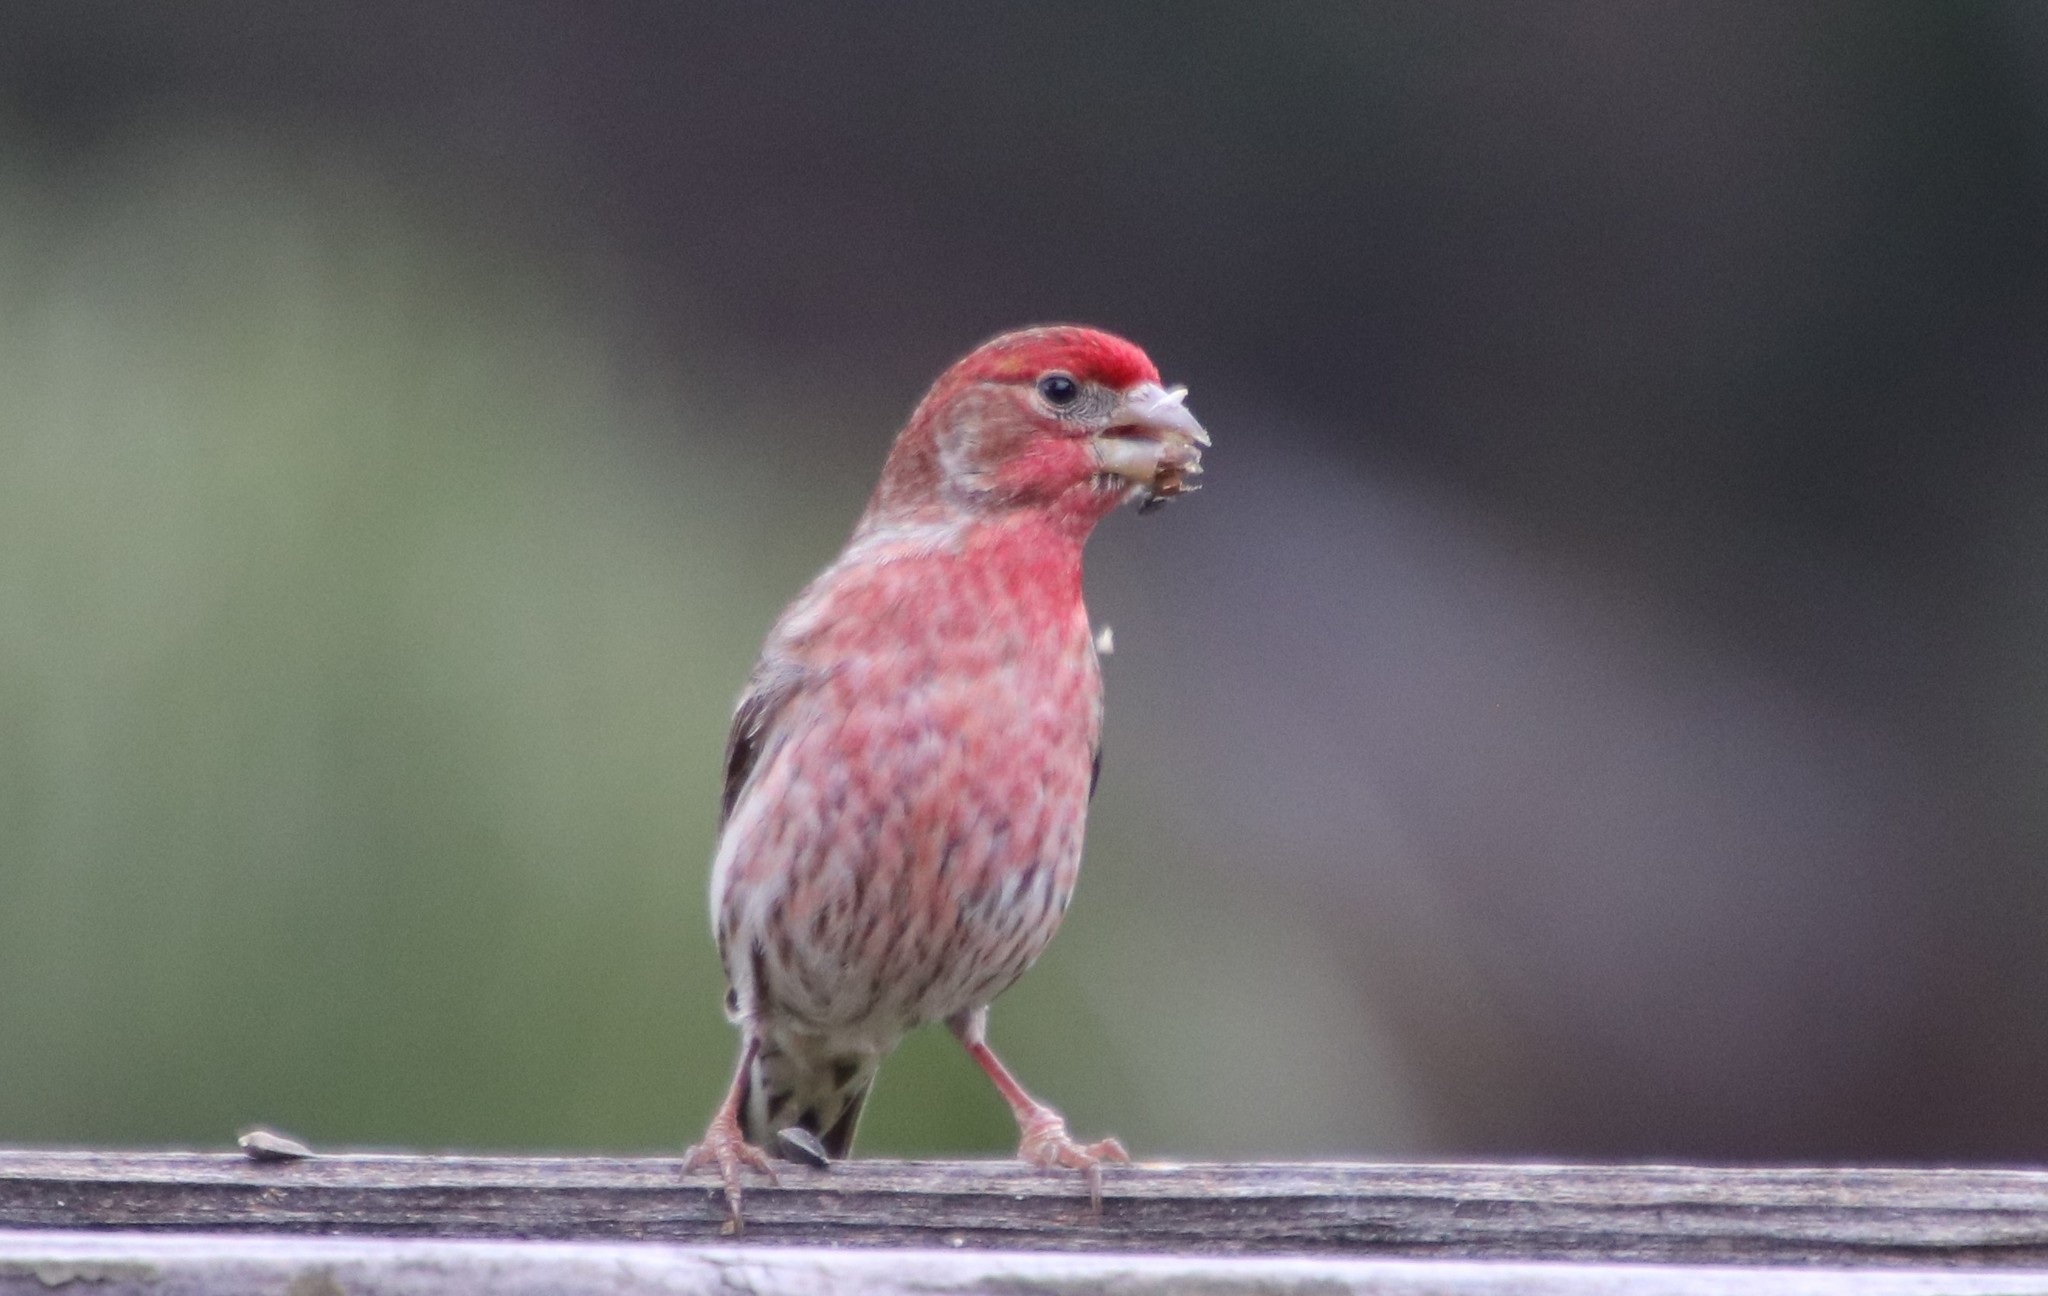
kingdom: Animalia
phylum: Chordata
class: Aves
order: Passeriformes
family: Fringillidae
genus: Haemorhous
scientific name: Haemorhous mexicanus
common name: House finch
